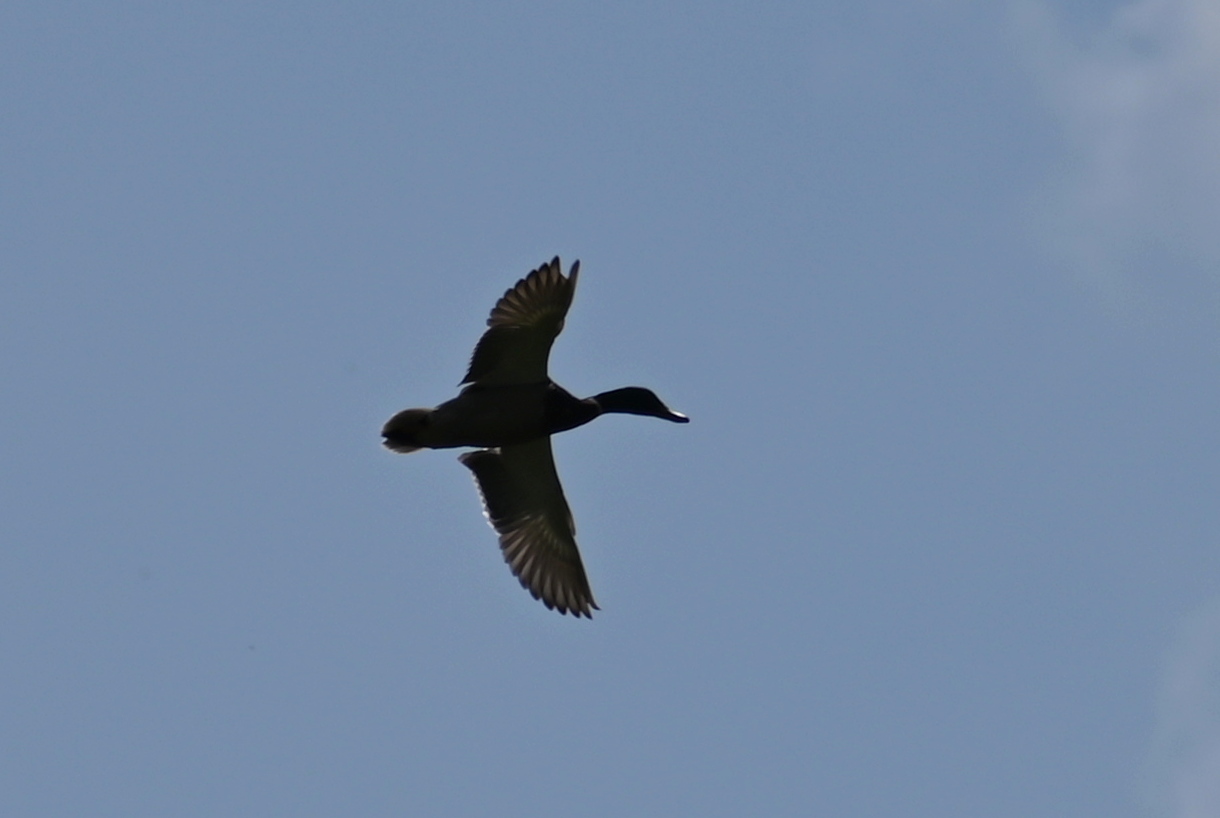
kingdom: Animalia
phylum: Chordata
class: Aves
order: Anseriformes
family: Anatidae
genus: Anas
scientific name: Anas platyrhynchos
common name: Mallard
